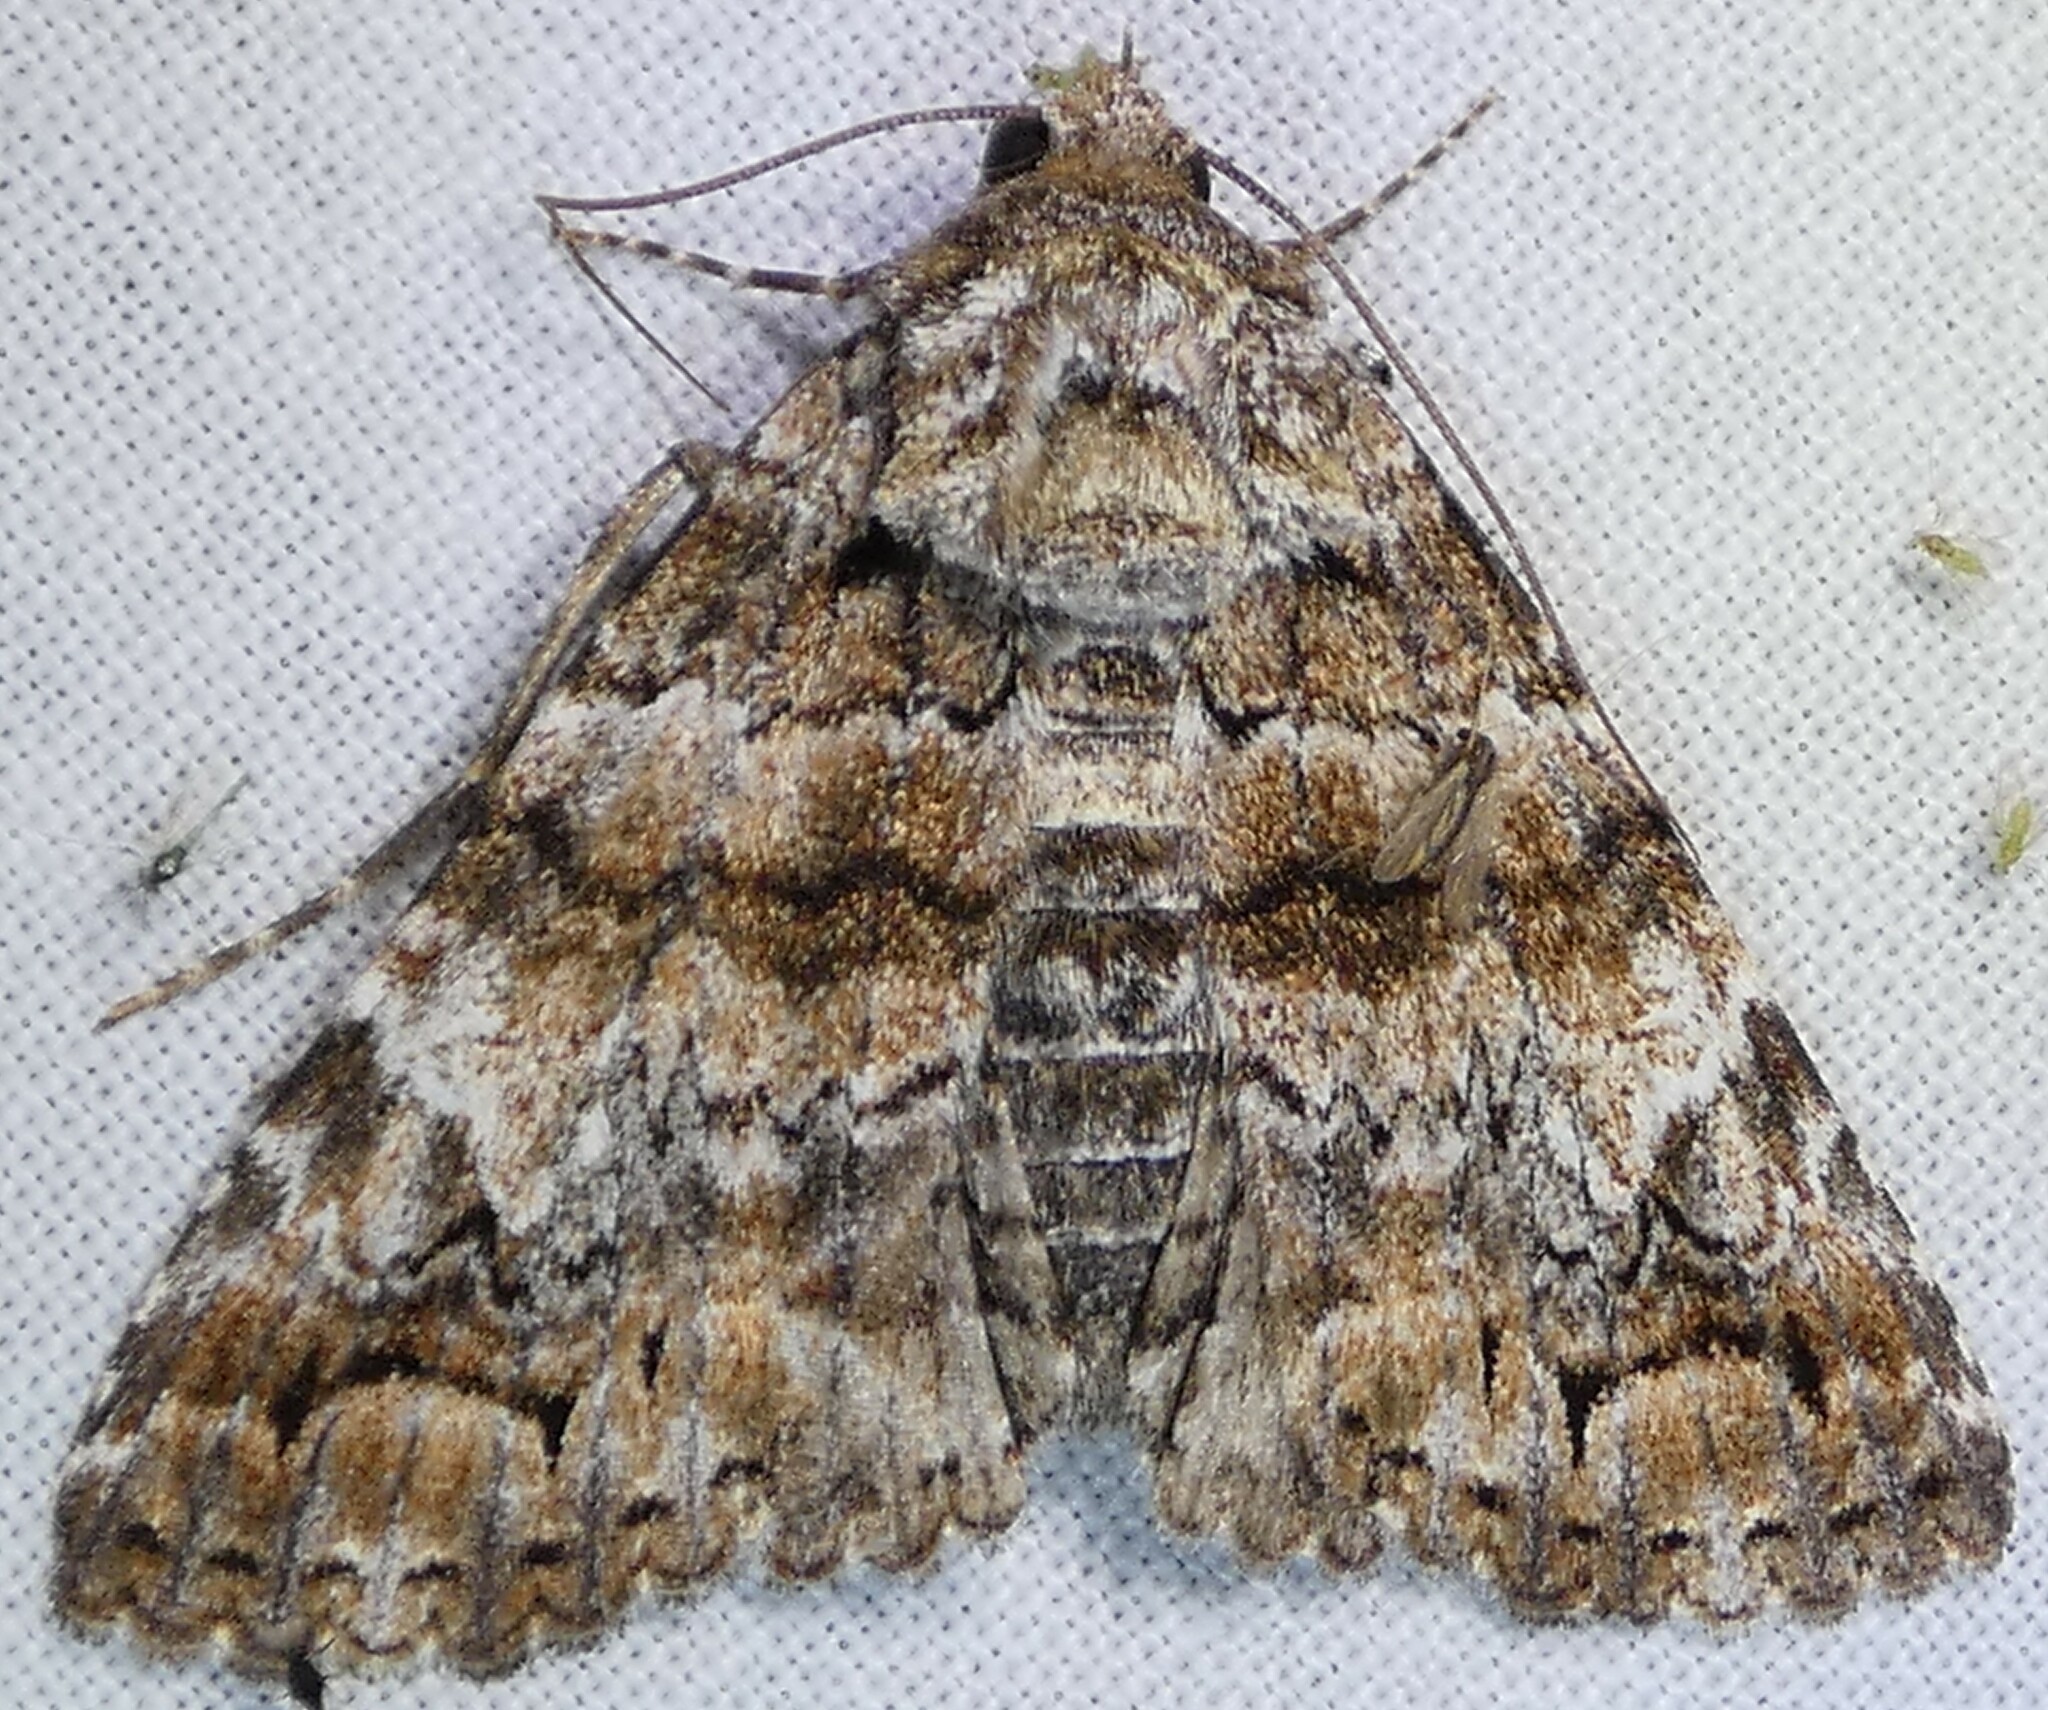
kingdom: Animalia
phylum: Arthropoda
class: Insecta
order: Lepidoptera
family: Erebidae
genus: Metria
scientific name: Metria amella
